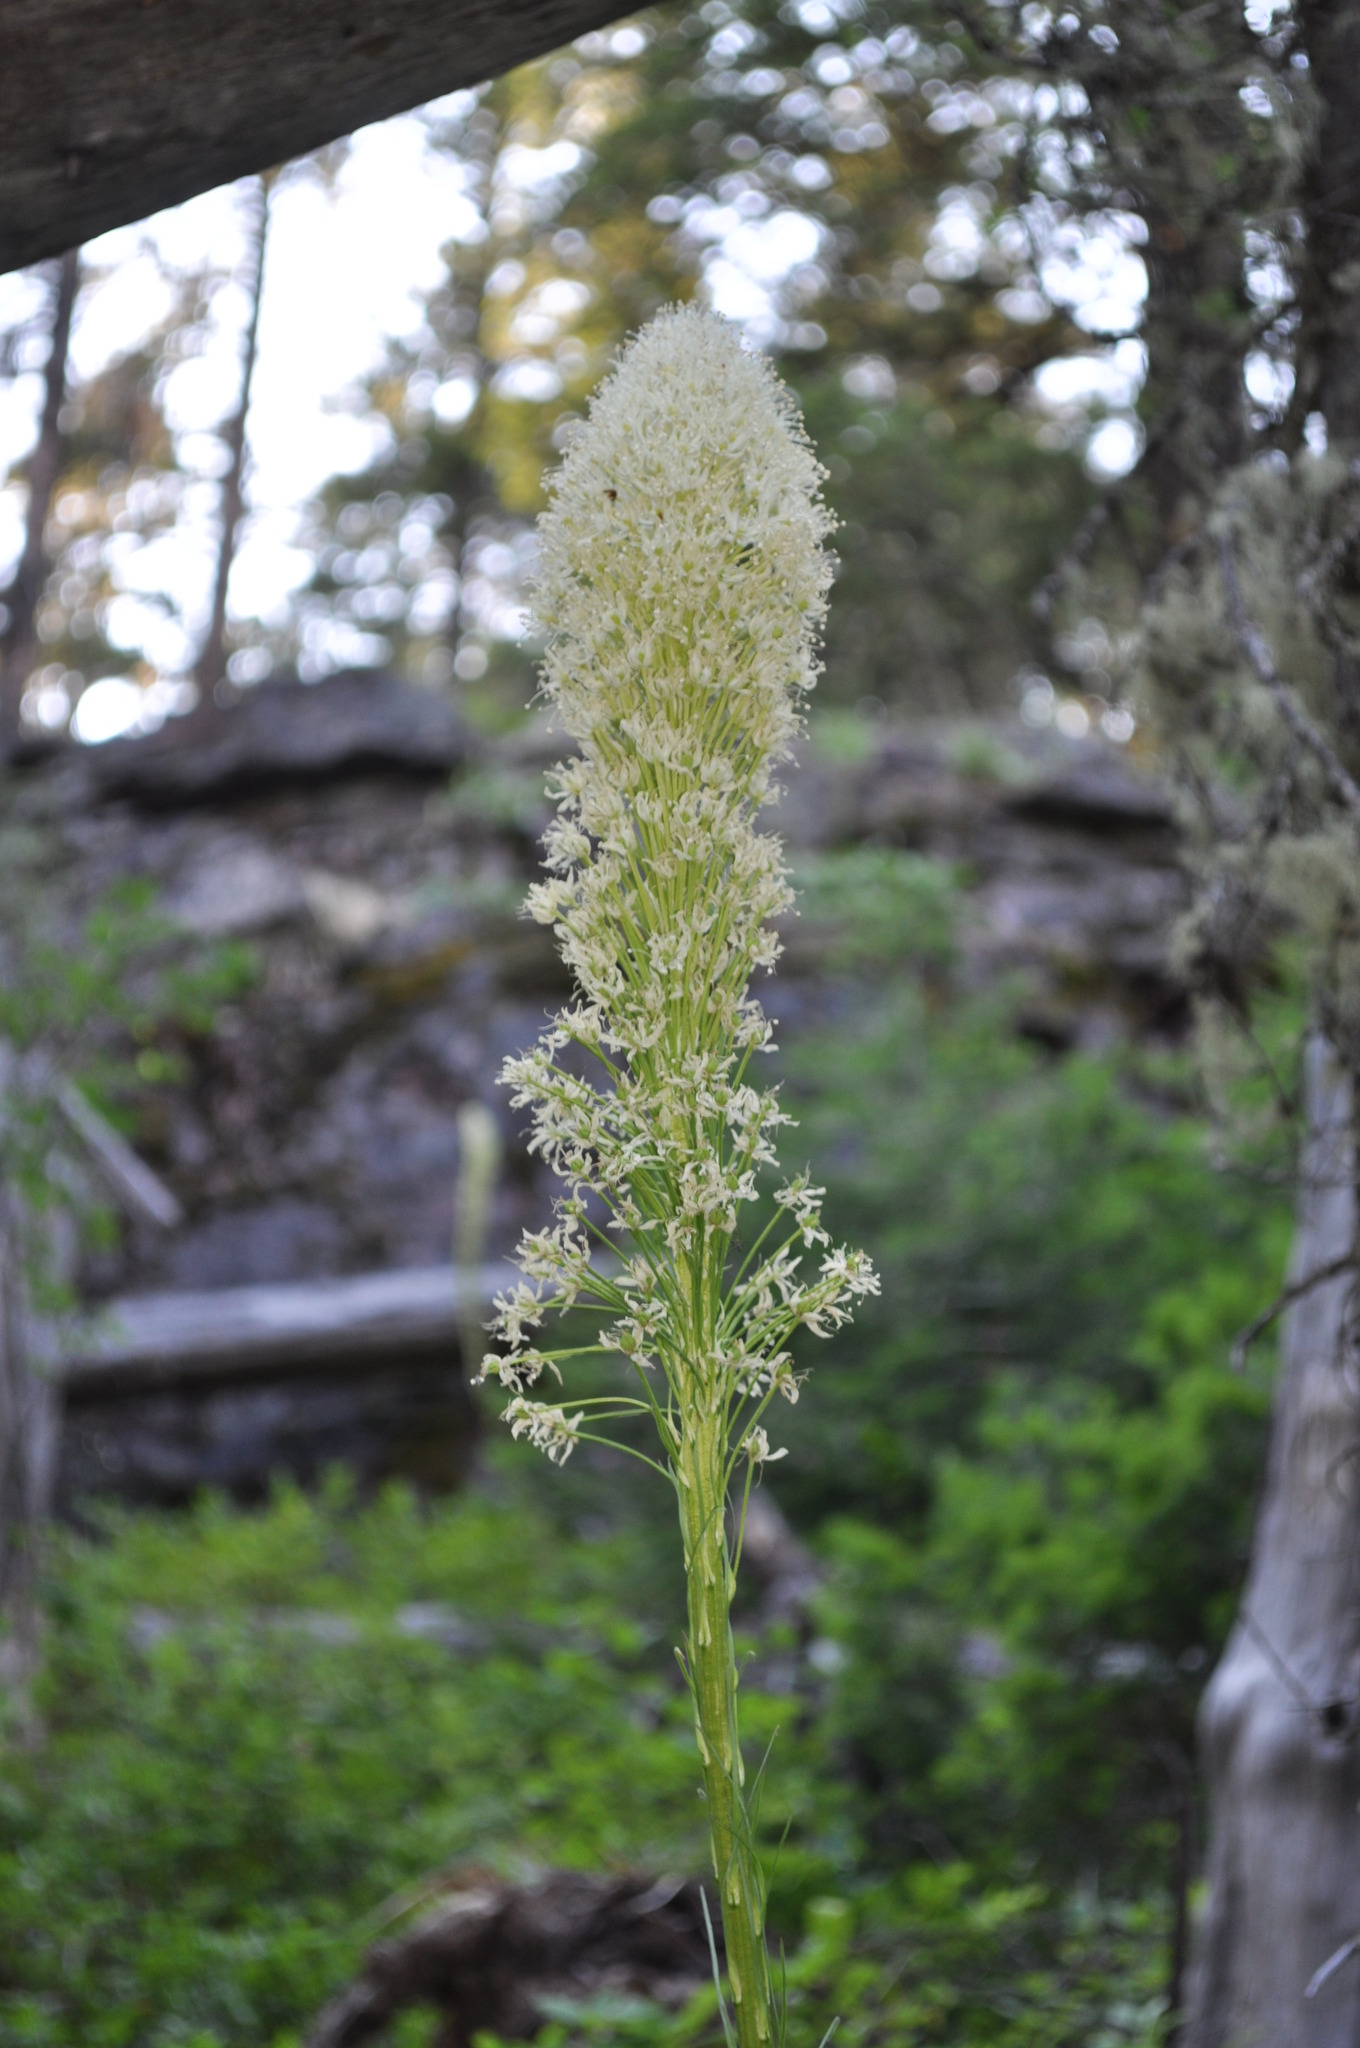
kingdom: Plantae
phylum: Tracheophyta
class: Liliopsida
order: Liliales
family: Melanthiaceae
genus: Xerophyllum
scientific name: Xerophyllum tenax
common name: Bear-grass
